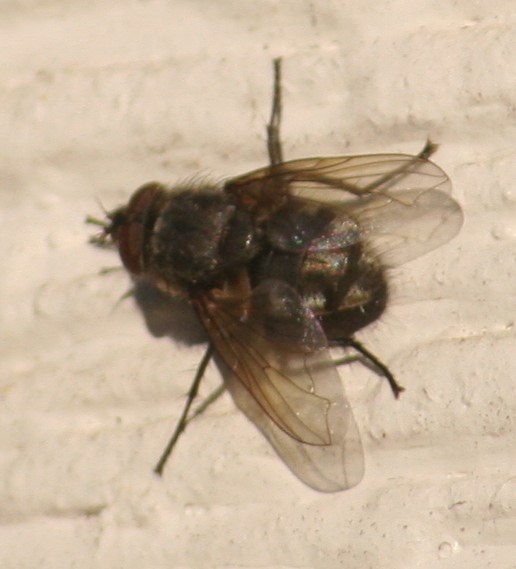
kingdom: Animalia
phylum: Arthropoda
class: Insecta
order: Diptera
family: Polleniidae
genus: Pollenia
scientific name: Pollenia
